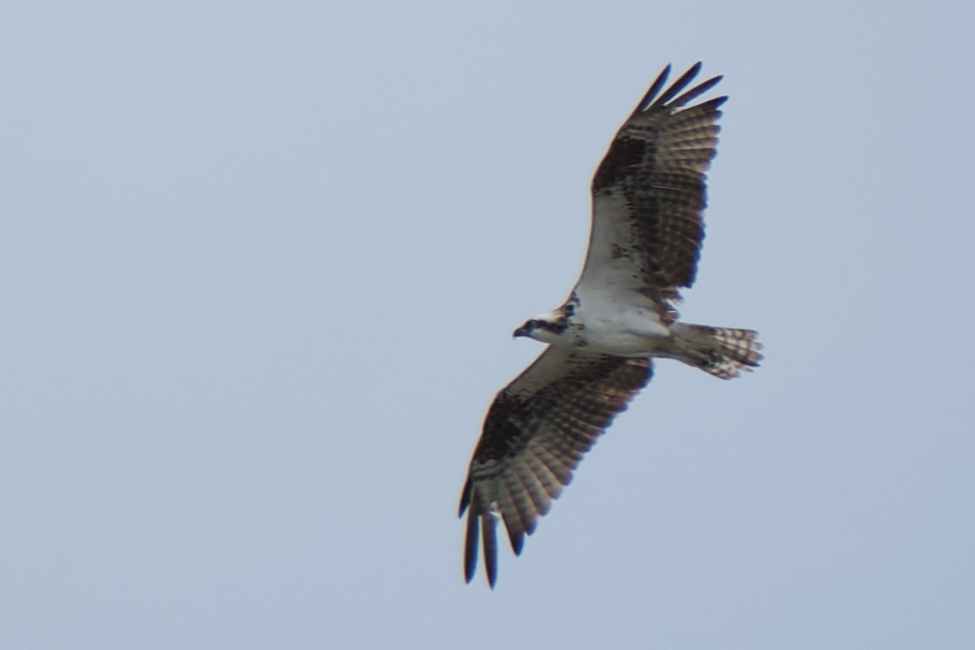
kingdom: Animalia
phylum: Chordata
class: Aves
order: Accipitriformes
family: Pandionidae
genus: Pandion
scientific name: Pandion haliaetus
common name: Osprey
